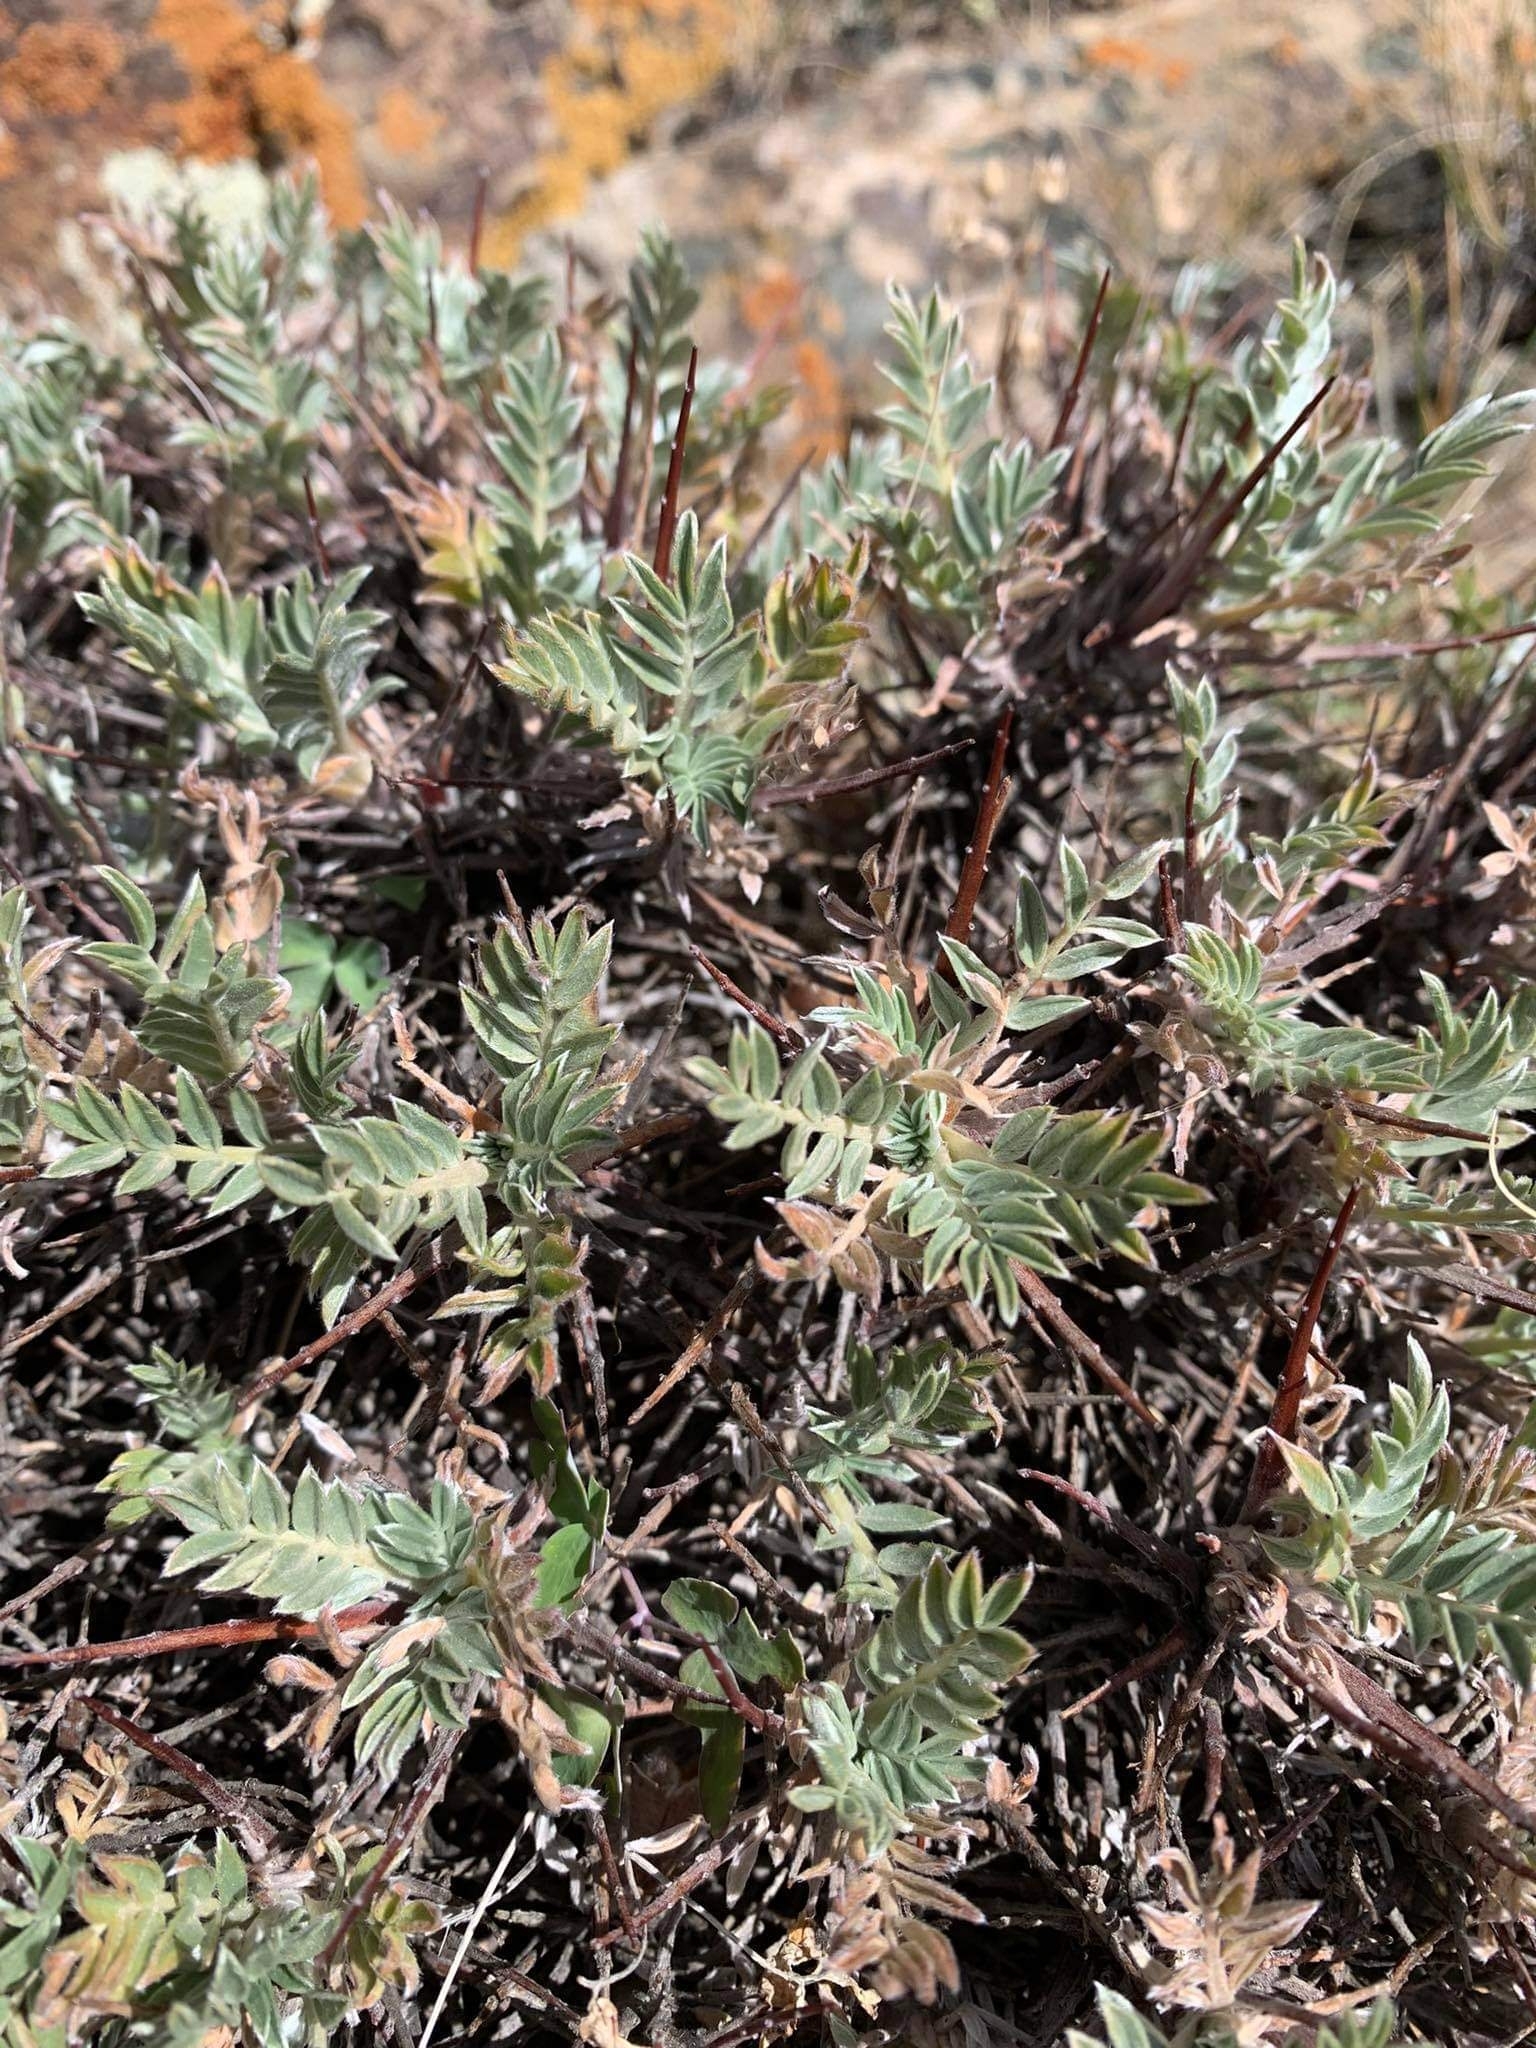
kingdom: Plantae
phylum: Tracheophyta
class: Magnoliopsida
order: Fabales
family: Fabaceae
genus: Oxytropis
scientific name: Oxytropis tragacanthoides
